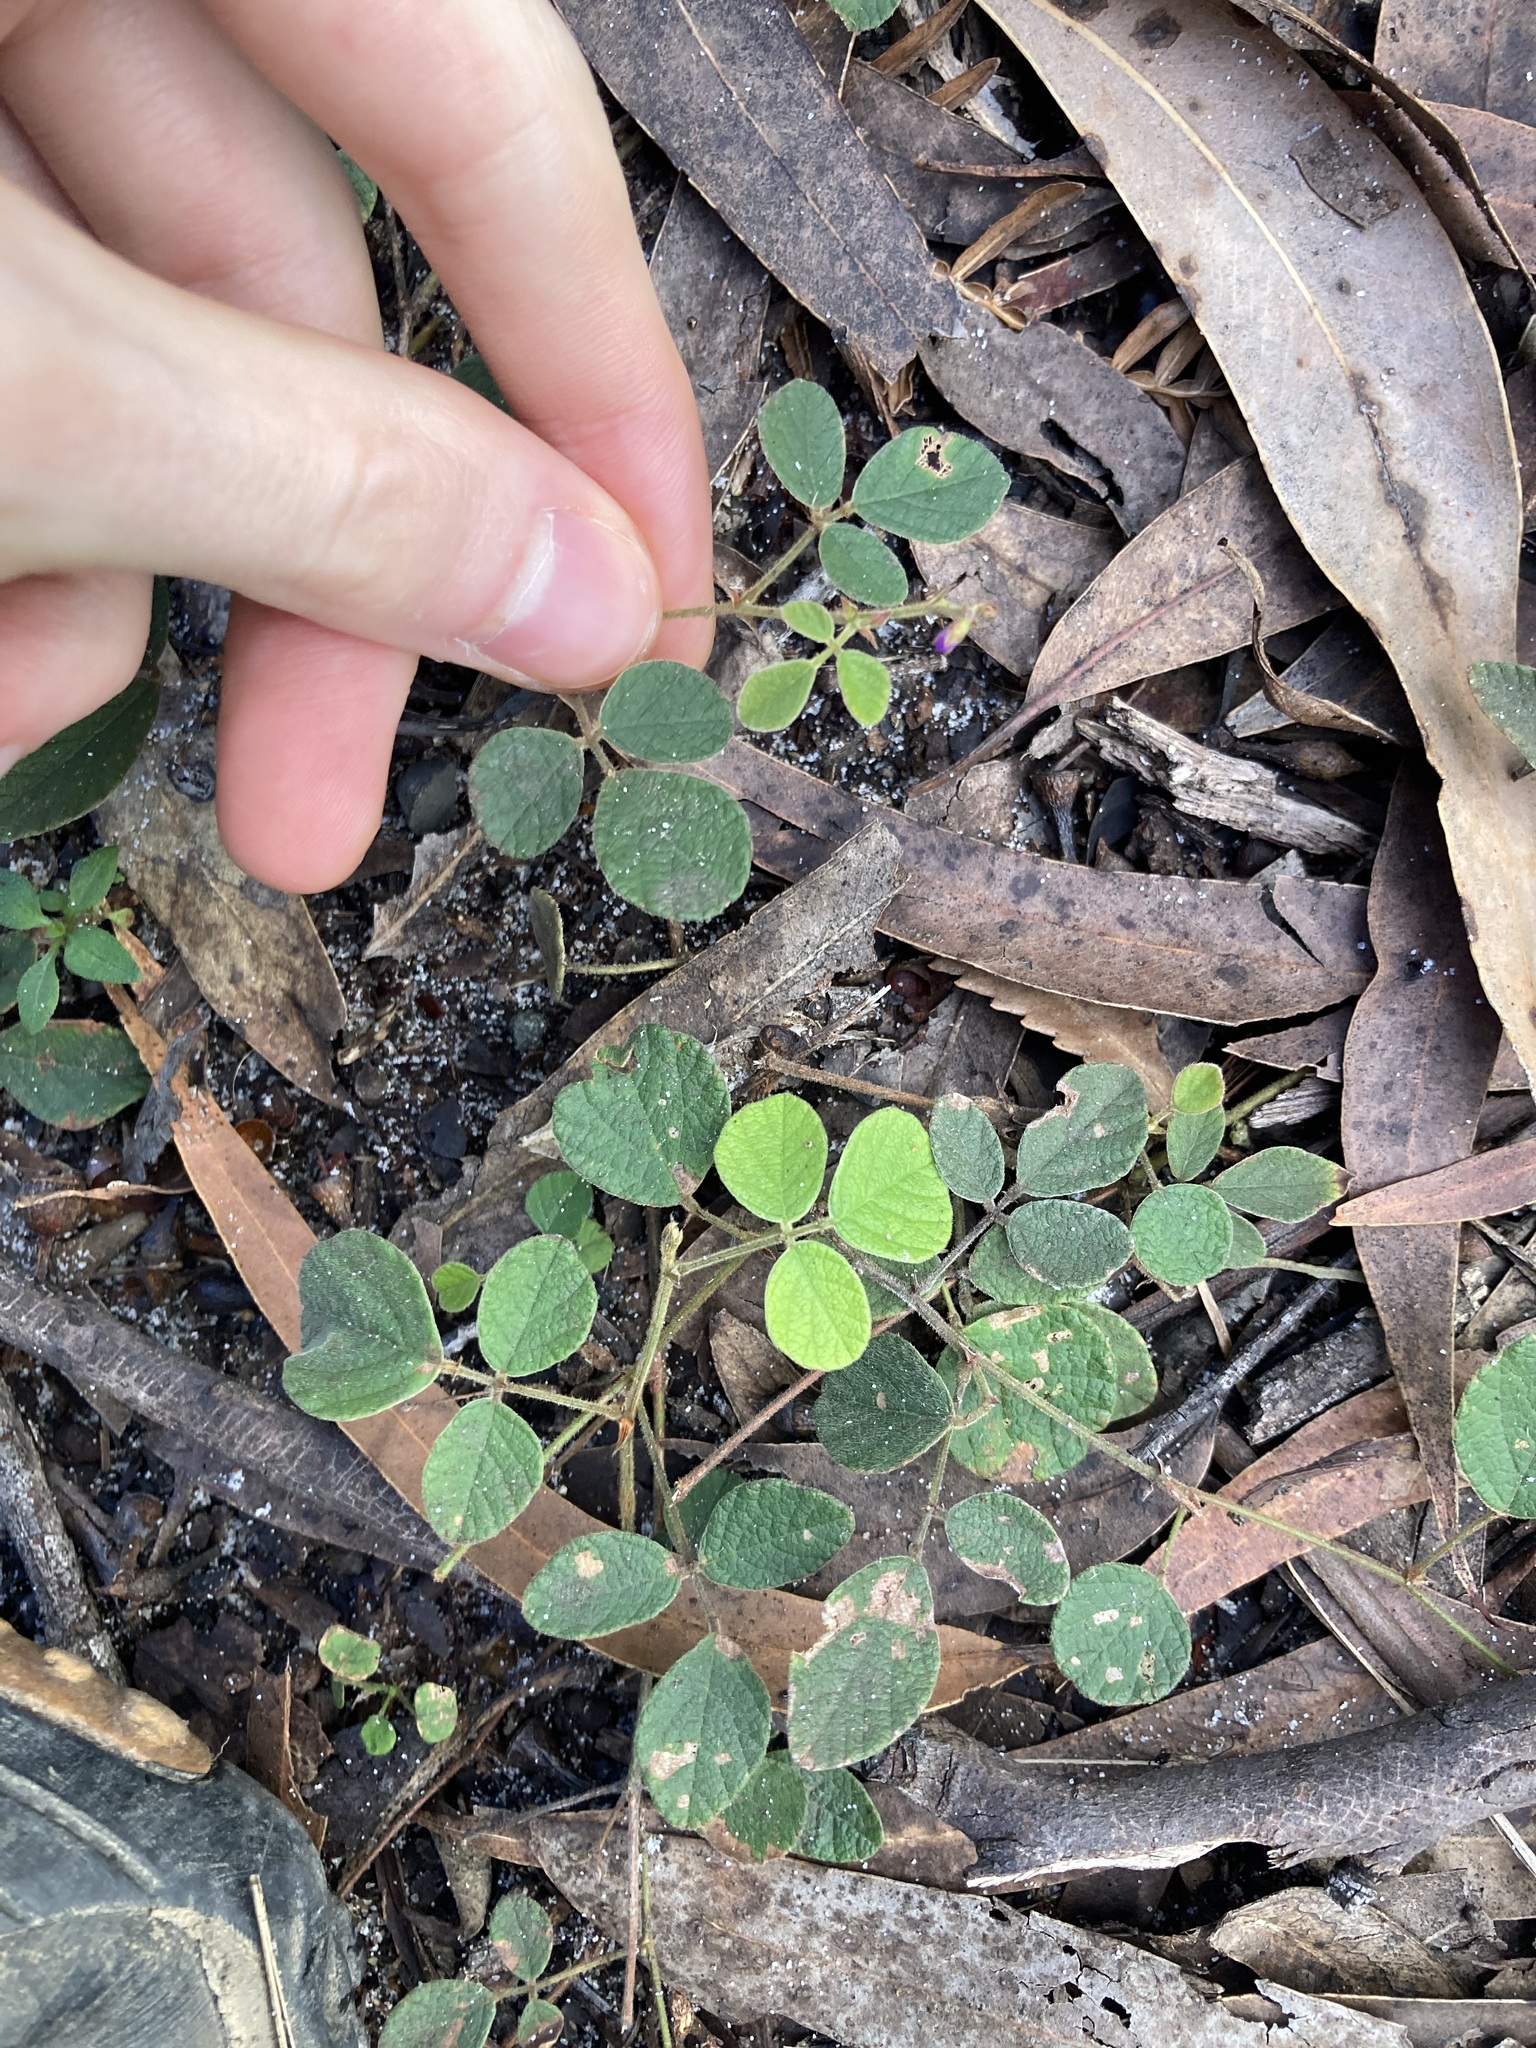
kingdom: Plantae
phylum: Tracheophyta
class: Magnoliopsida
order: Fabales
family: Fabaceae
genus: Maekawaea
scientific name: Maekawaea rhytidophylla
